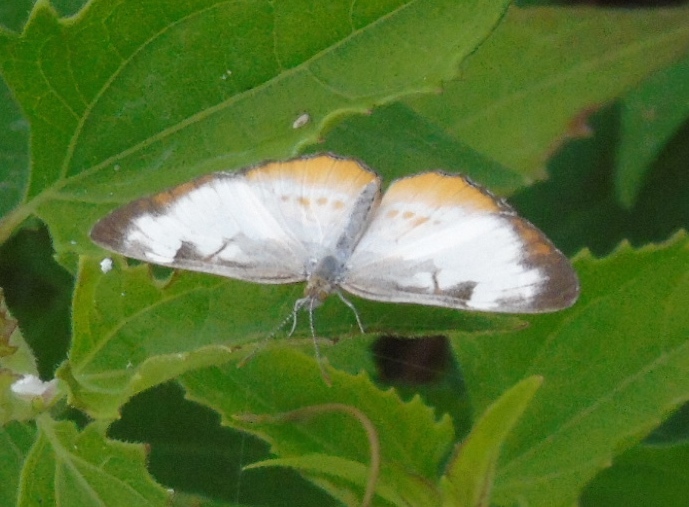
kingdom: Animalia
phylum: Arthropoda
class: Insecta
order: Lepidoptera
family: Nymphalidae
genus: Mestra
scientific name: Mestra amymone
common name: Common mestra
